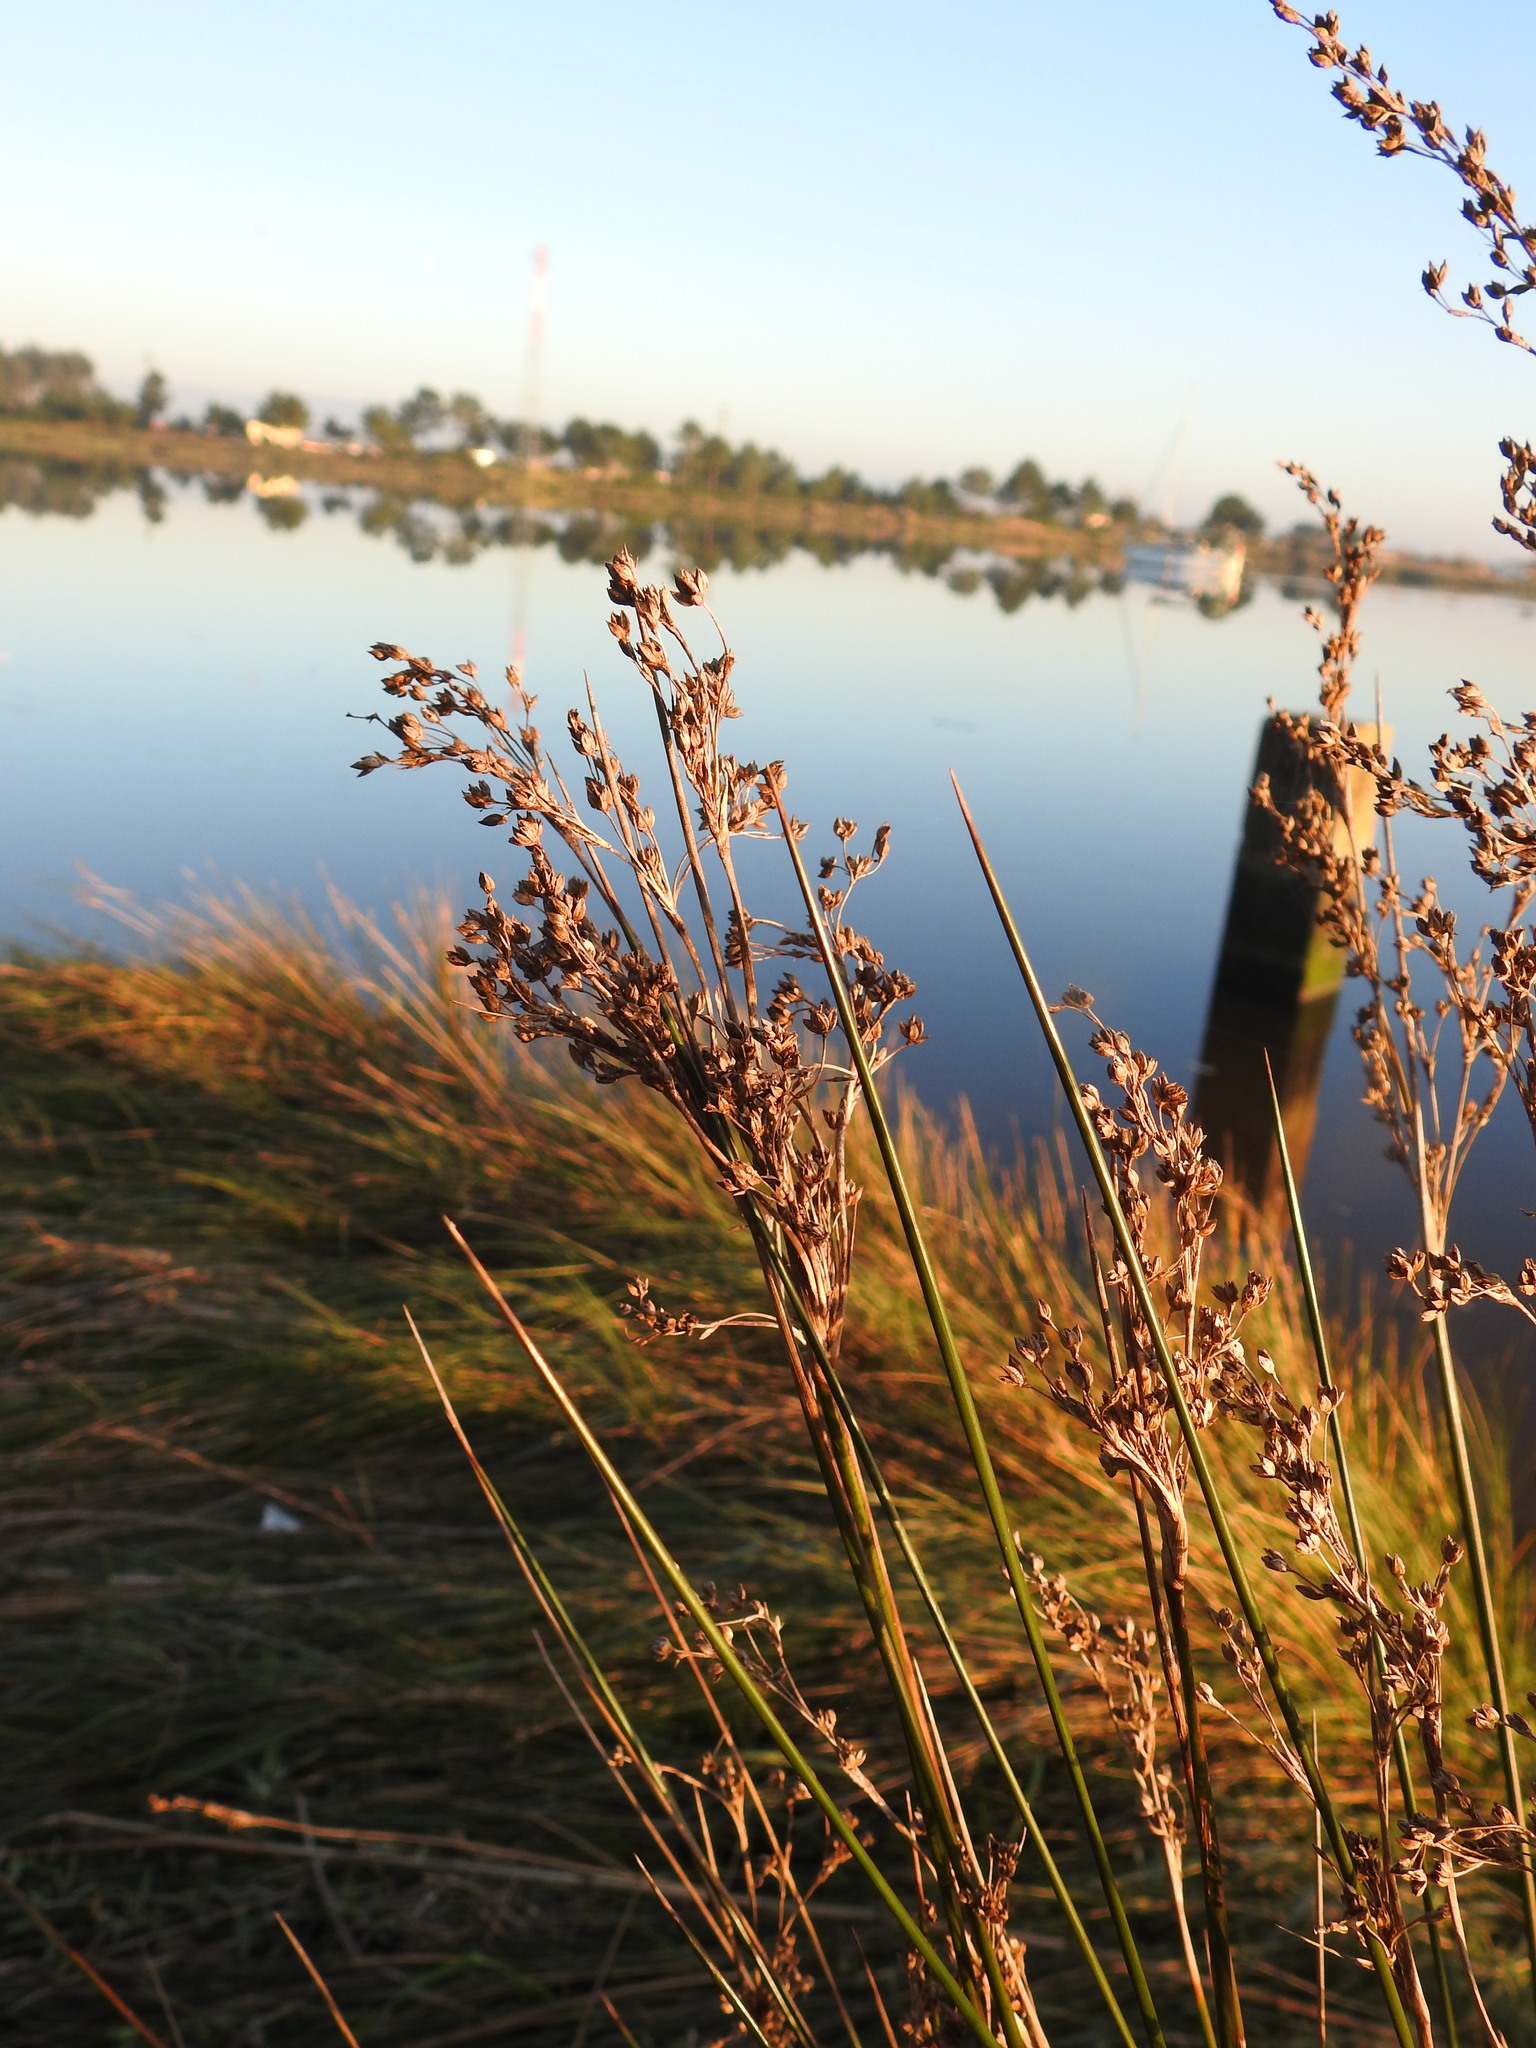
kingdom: Plantae
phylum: Tracheophyta
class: Liliopsida
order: Poales
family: Juncaceae
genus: Juncus
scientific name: Juncus maritimus
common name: Sea rush
